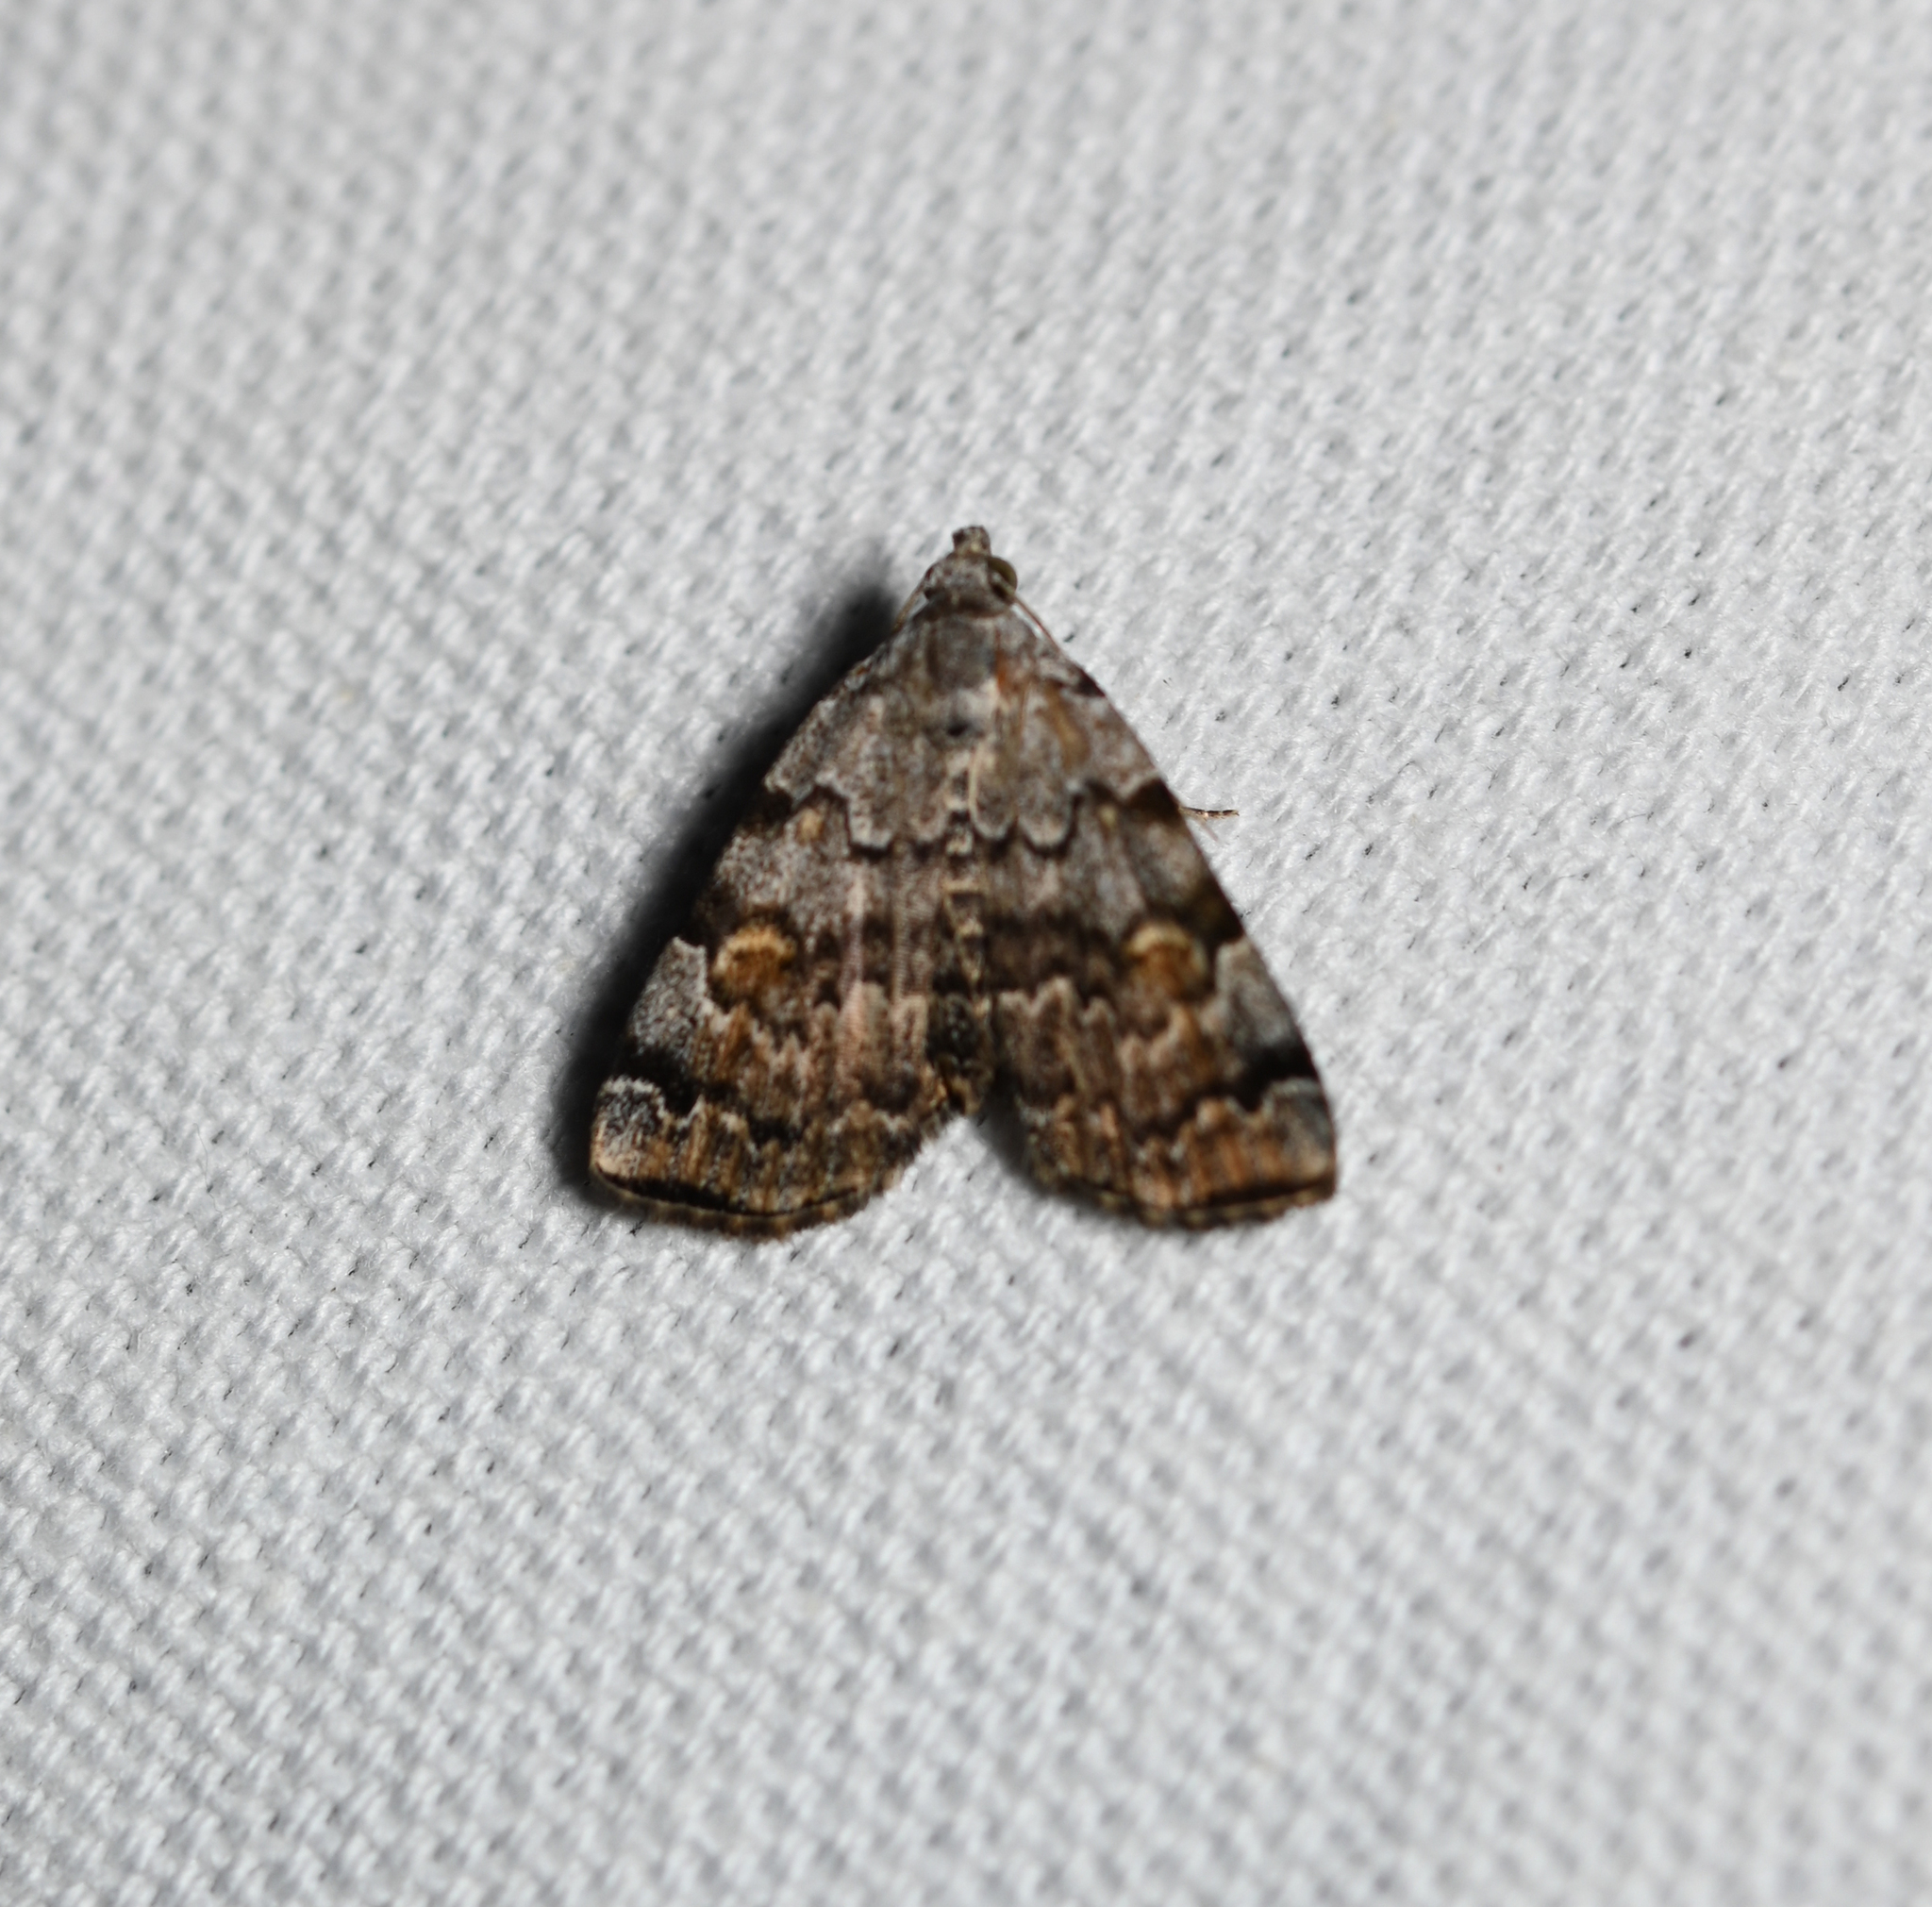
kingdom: Animalia
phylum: Arthropoda
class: Insecta
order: Lepidoptera
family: Erebidae
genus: Idia
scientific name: Idia americalis
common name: American idia moth
